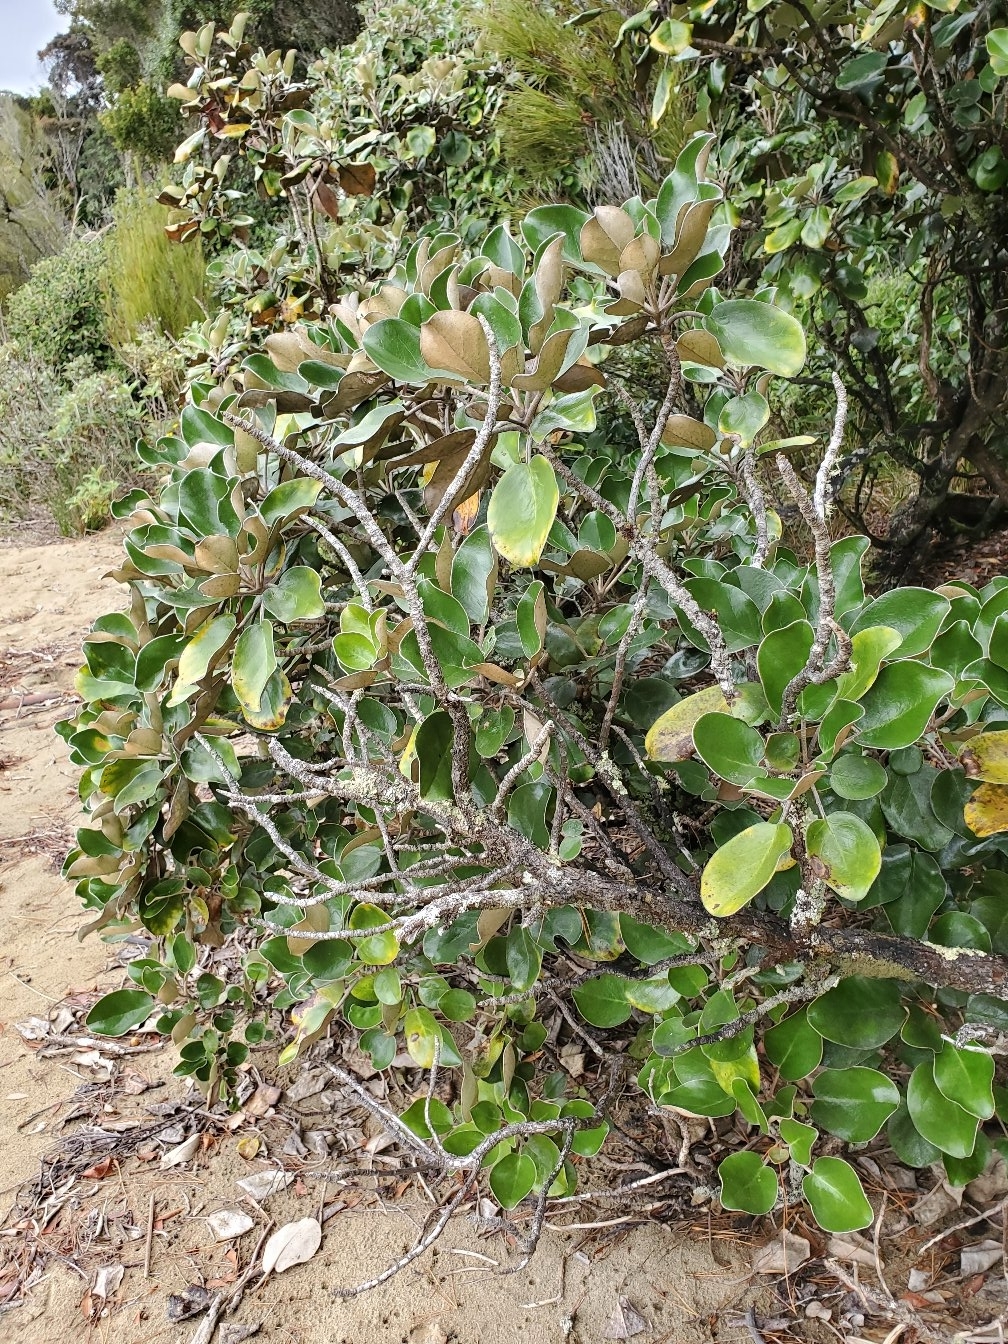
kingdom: Plantae
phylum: Tracheophyta
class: Magnoliopsida
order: Asterales
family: Asteraceae
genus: Brachyglottis
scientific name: Brachyglottis rotundifolia
